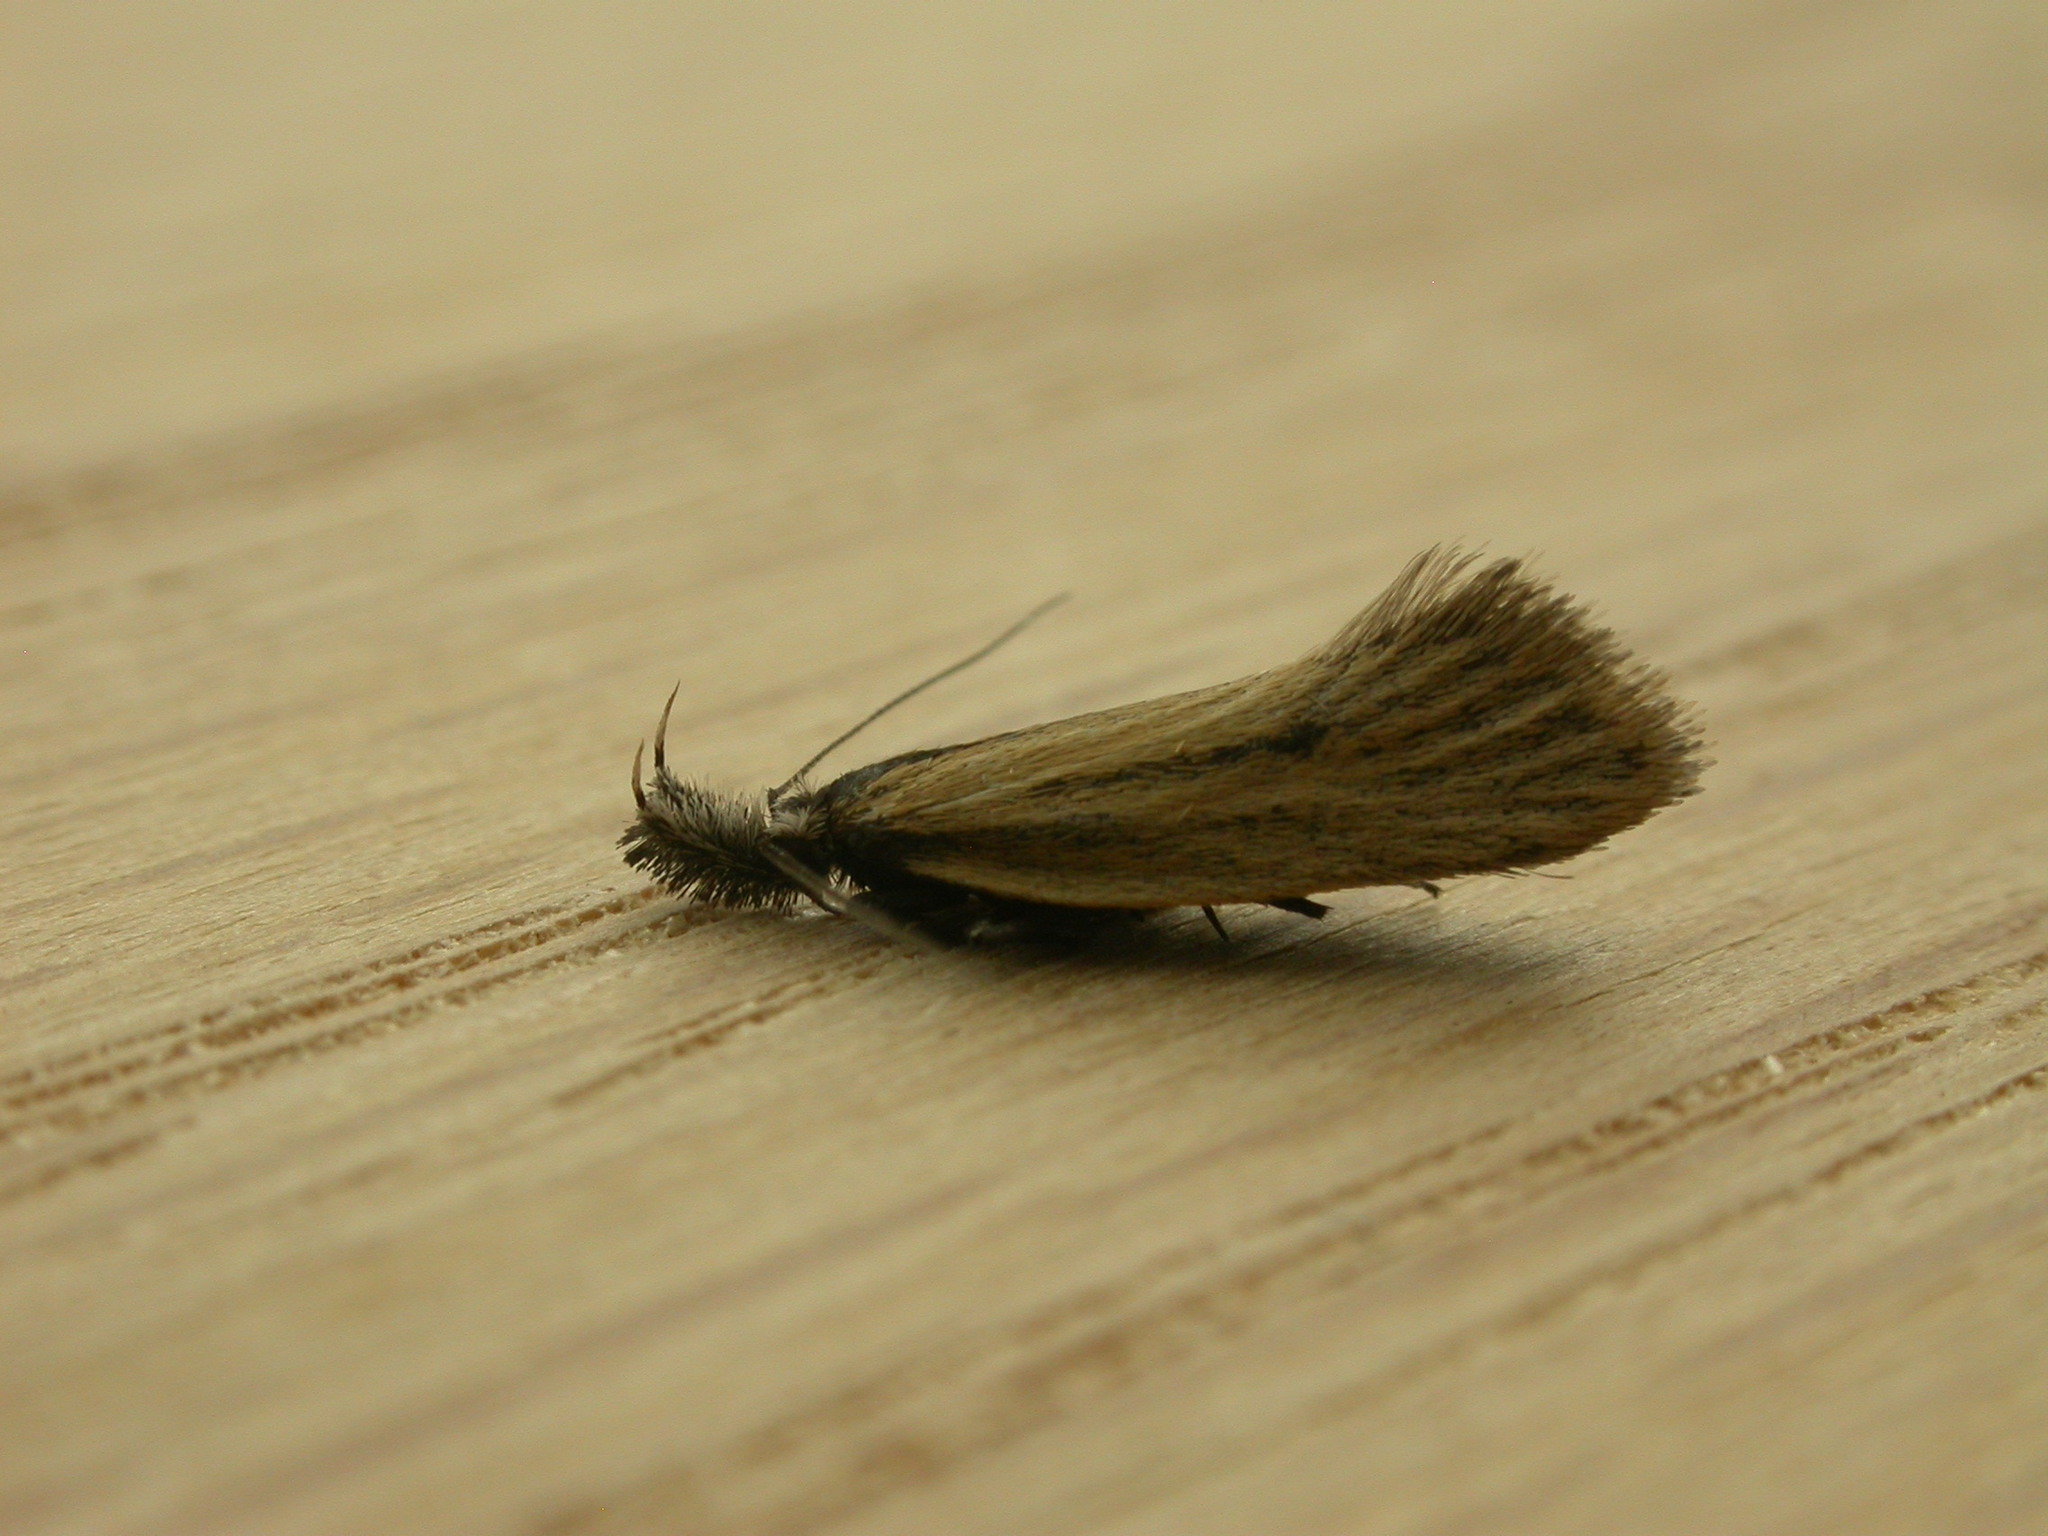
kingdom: Animalia
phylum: Arthropoda
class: Insecta
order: Lepidoptera
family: Oecophoridae
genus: Thema
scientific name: Thema protogramma
